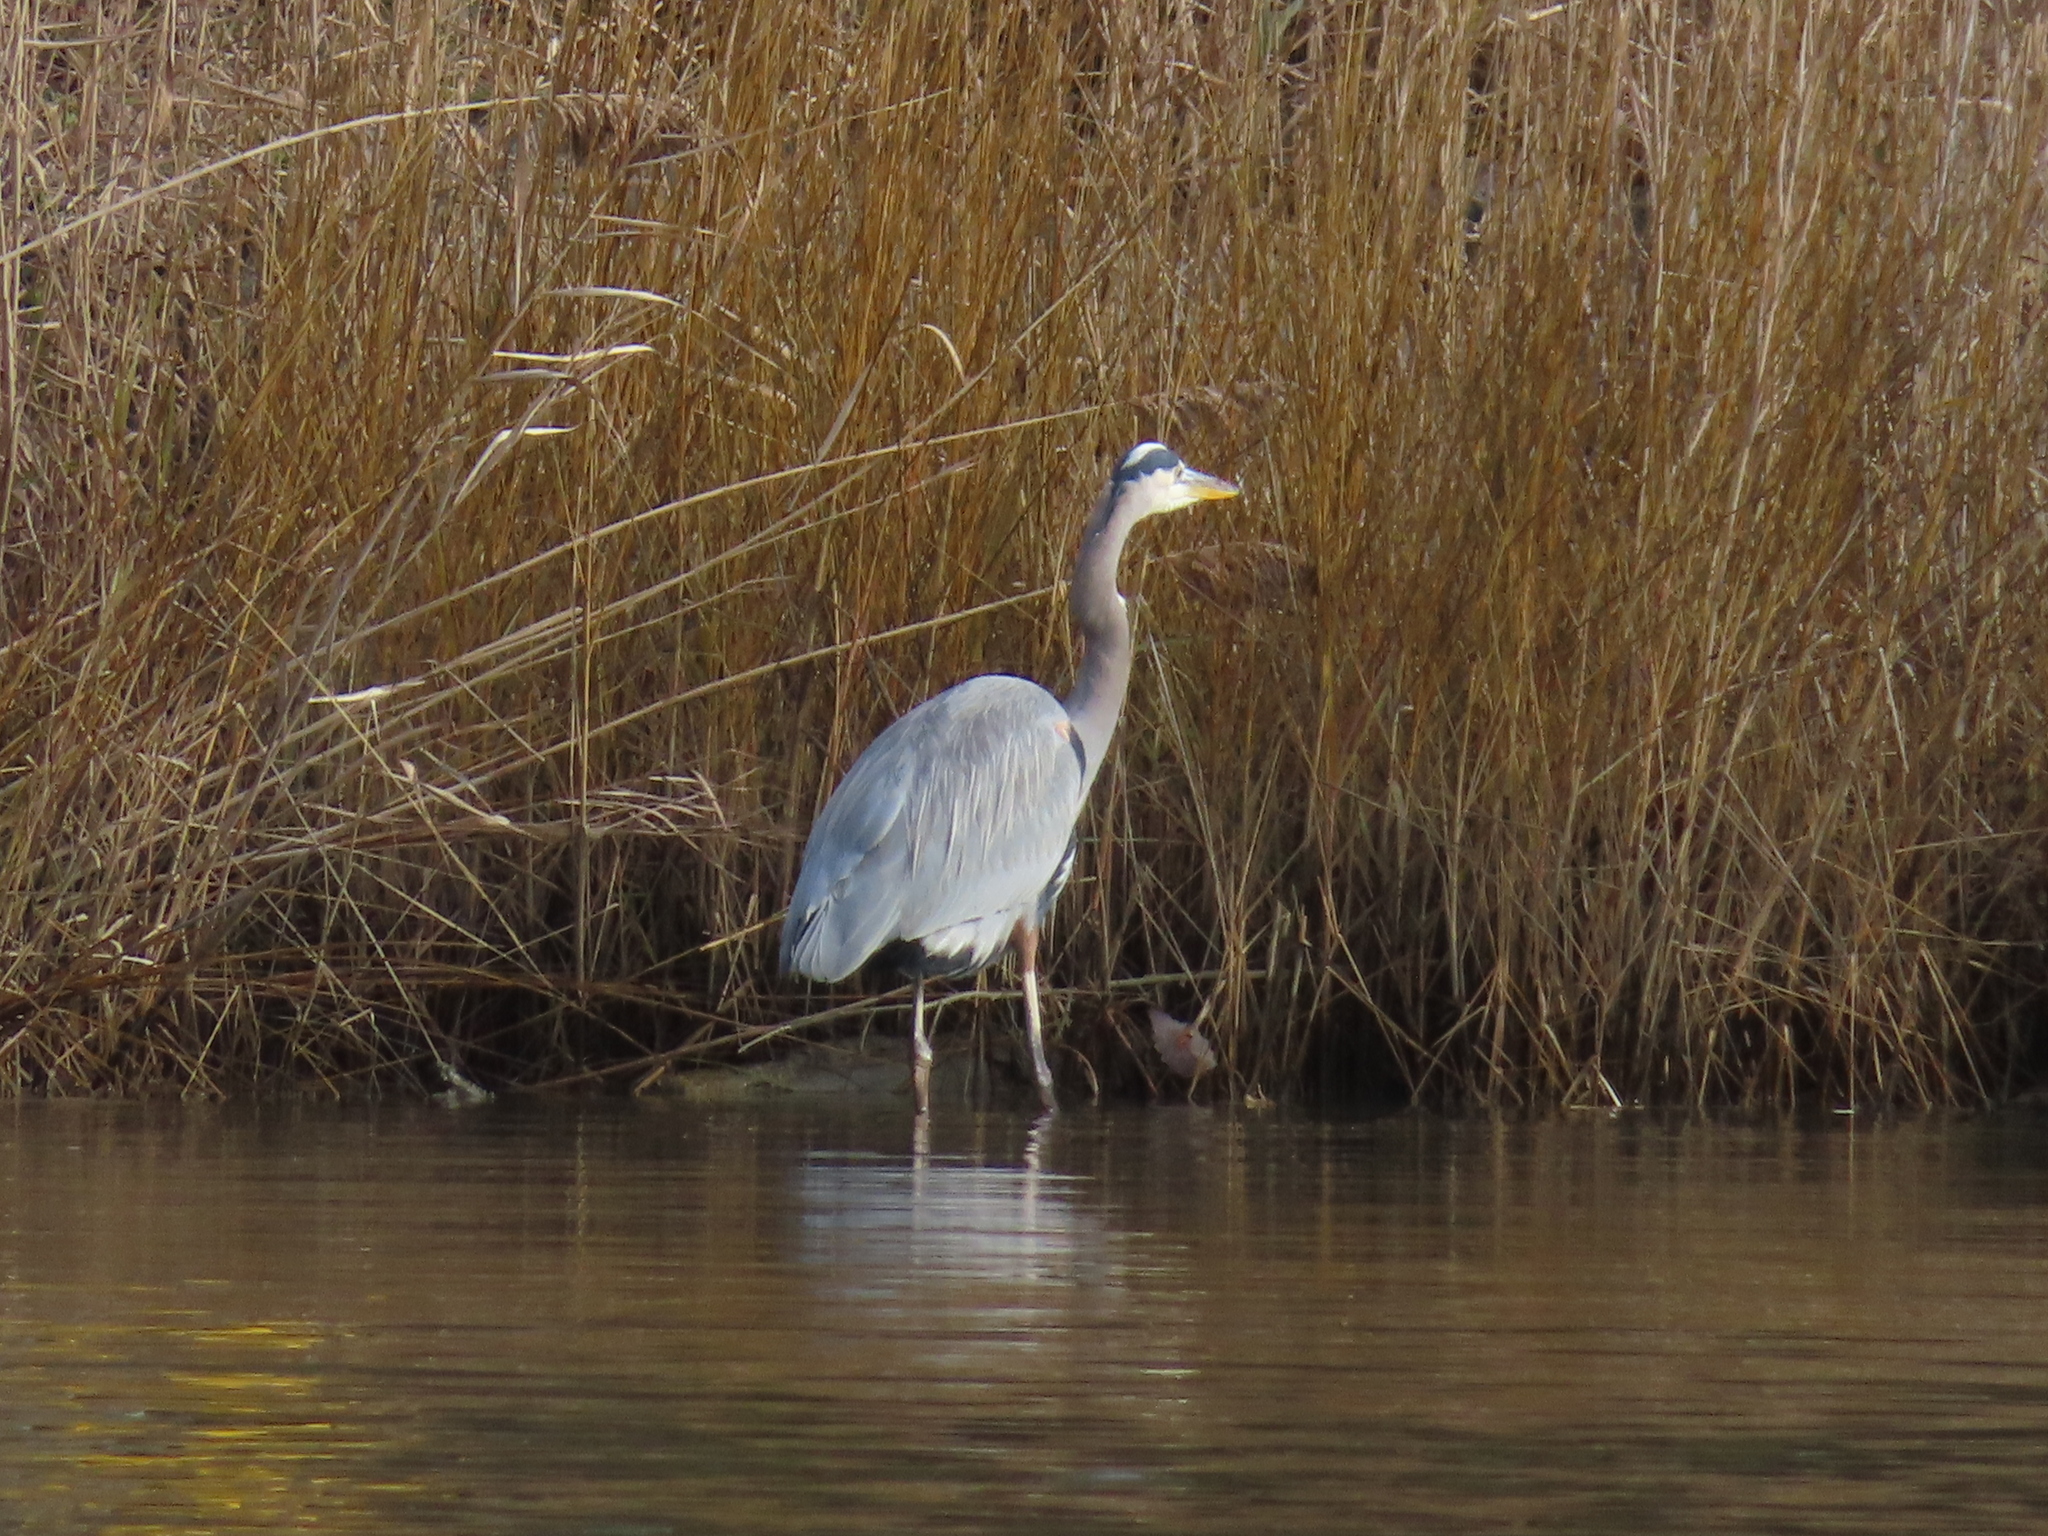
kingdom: Animalia
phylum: Chordata
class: Aves
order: Pelecaniformes
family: Ardeidae
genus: Ardea
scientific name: Ardea herodias
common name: Great blue heron
